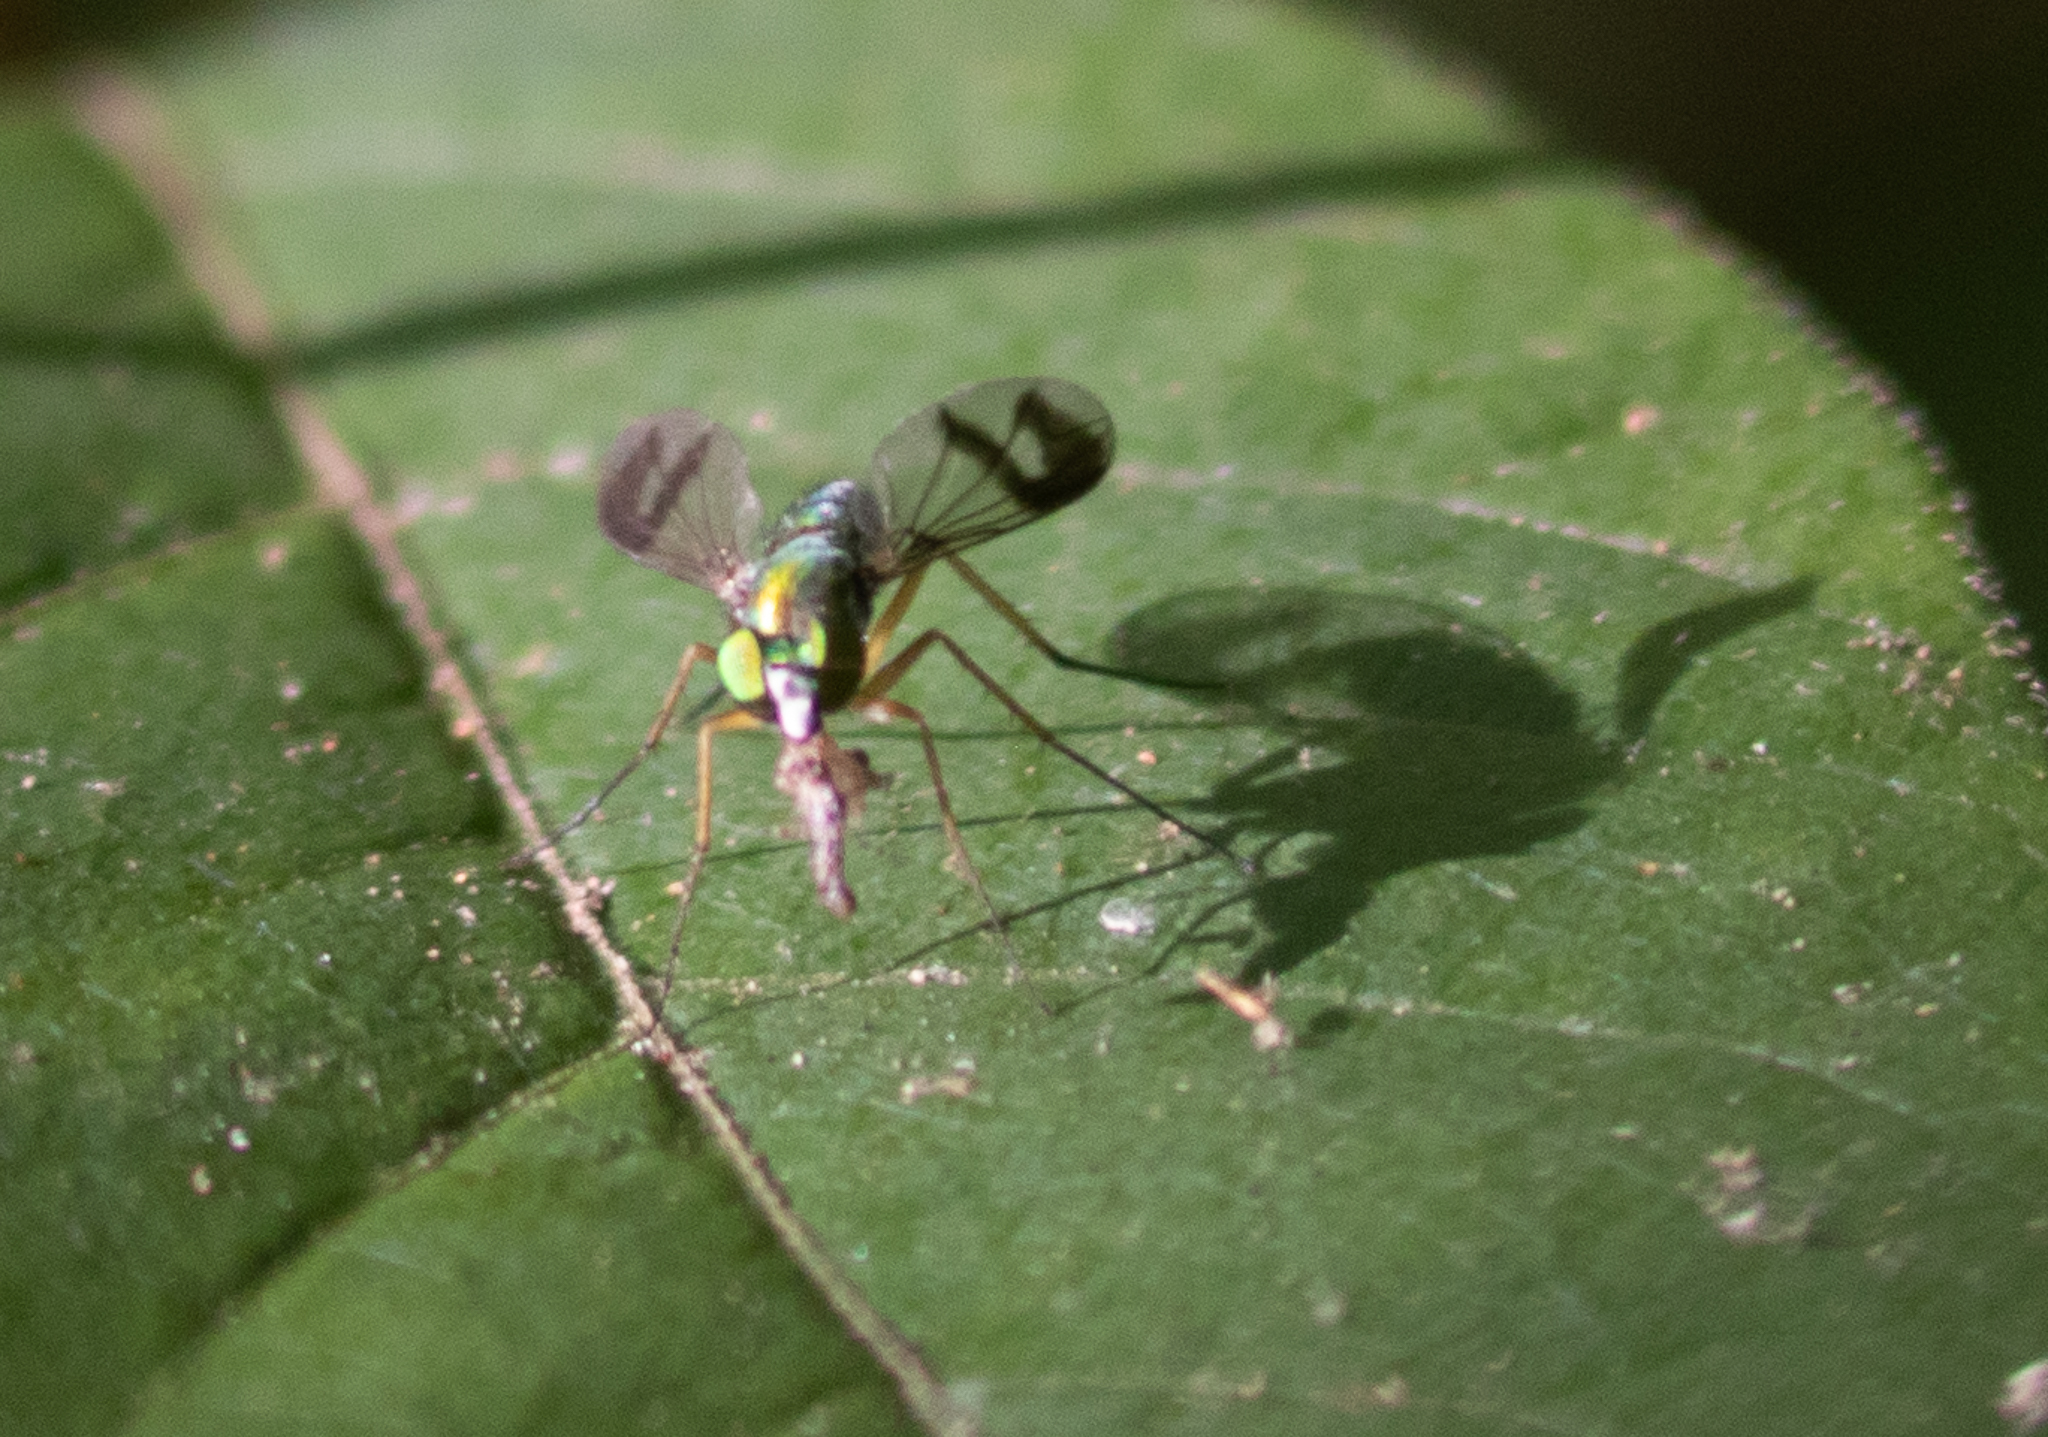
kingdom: Animalia
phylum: Arthropoda
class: Insecta
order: Diptera
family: Dolichopodidae
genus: Condylostylus
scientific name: Condylostylus
